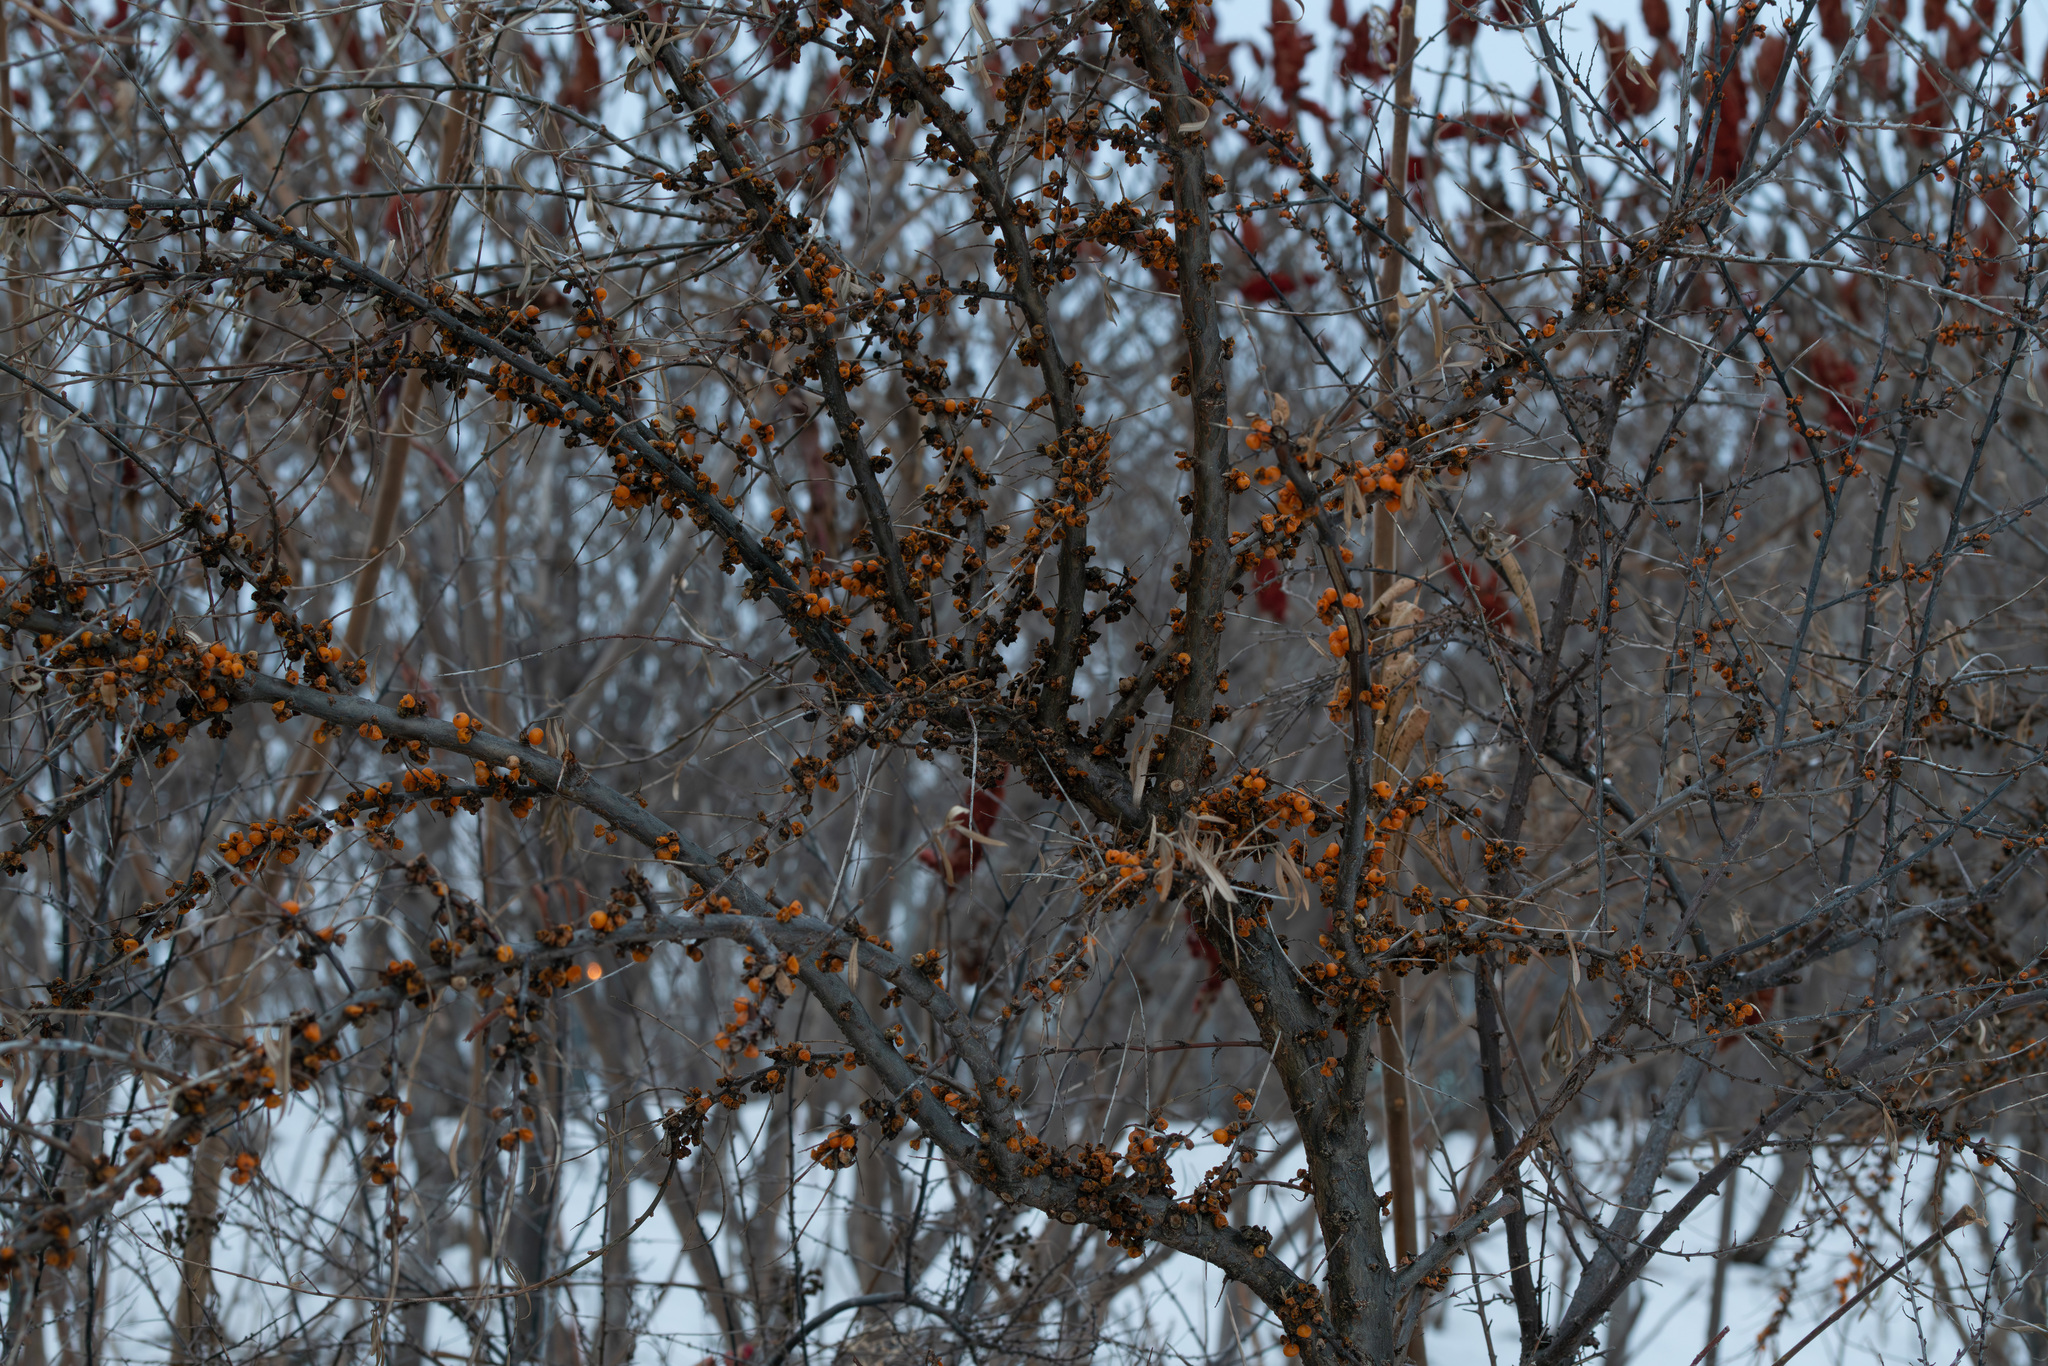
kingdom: Plantae
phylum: Tracheophyta
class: Magnoliopsida
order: Rosales
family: Elaeagnaceae
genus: Hippophae
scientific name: Hippophae rhamnoides
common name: Sea-buckthorn
